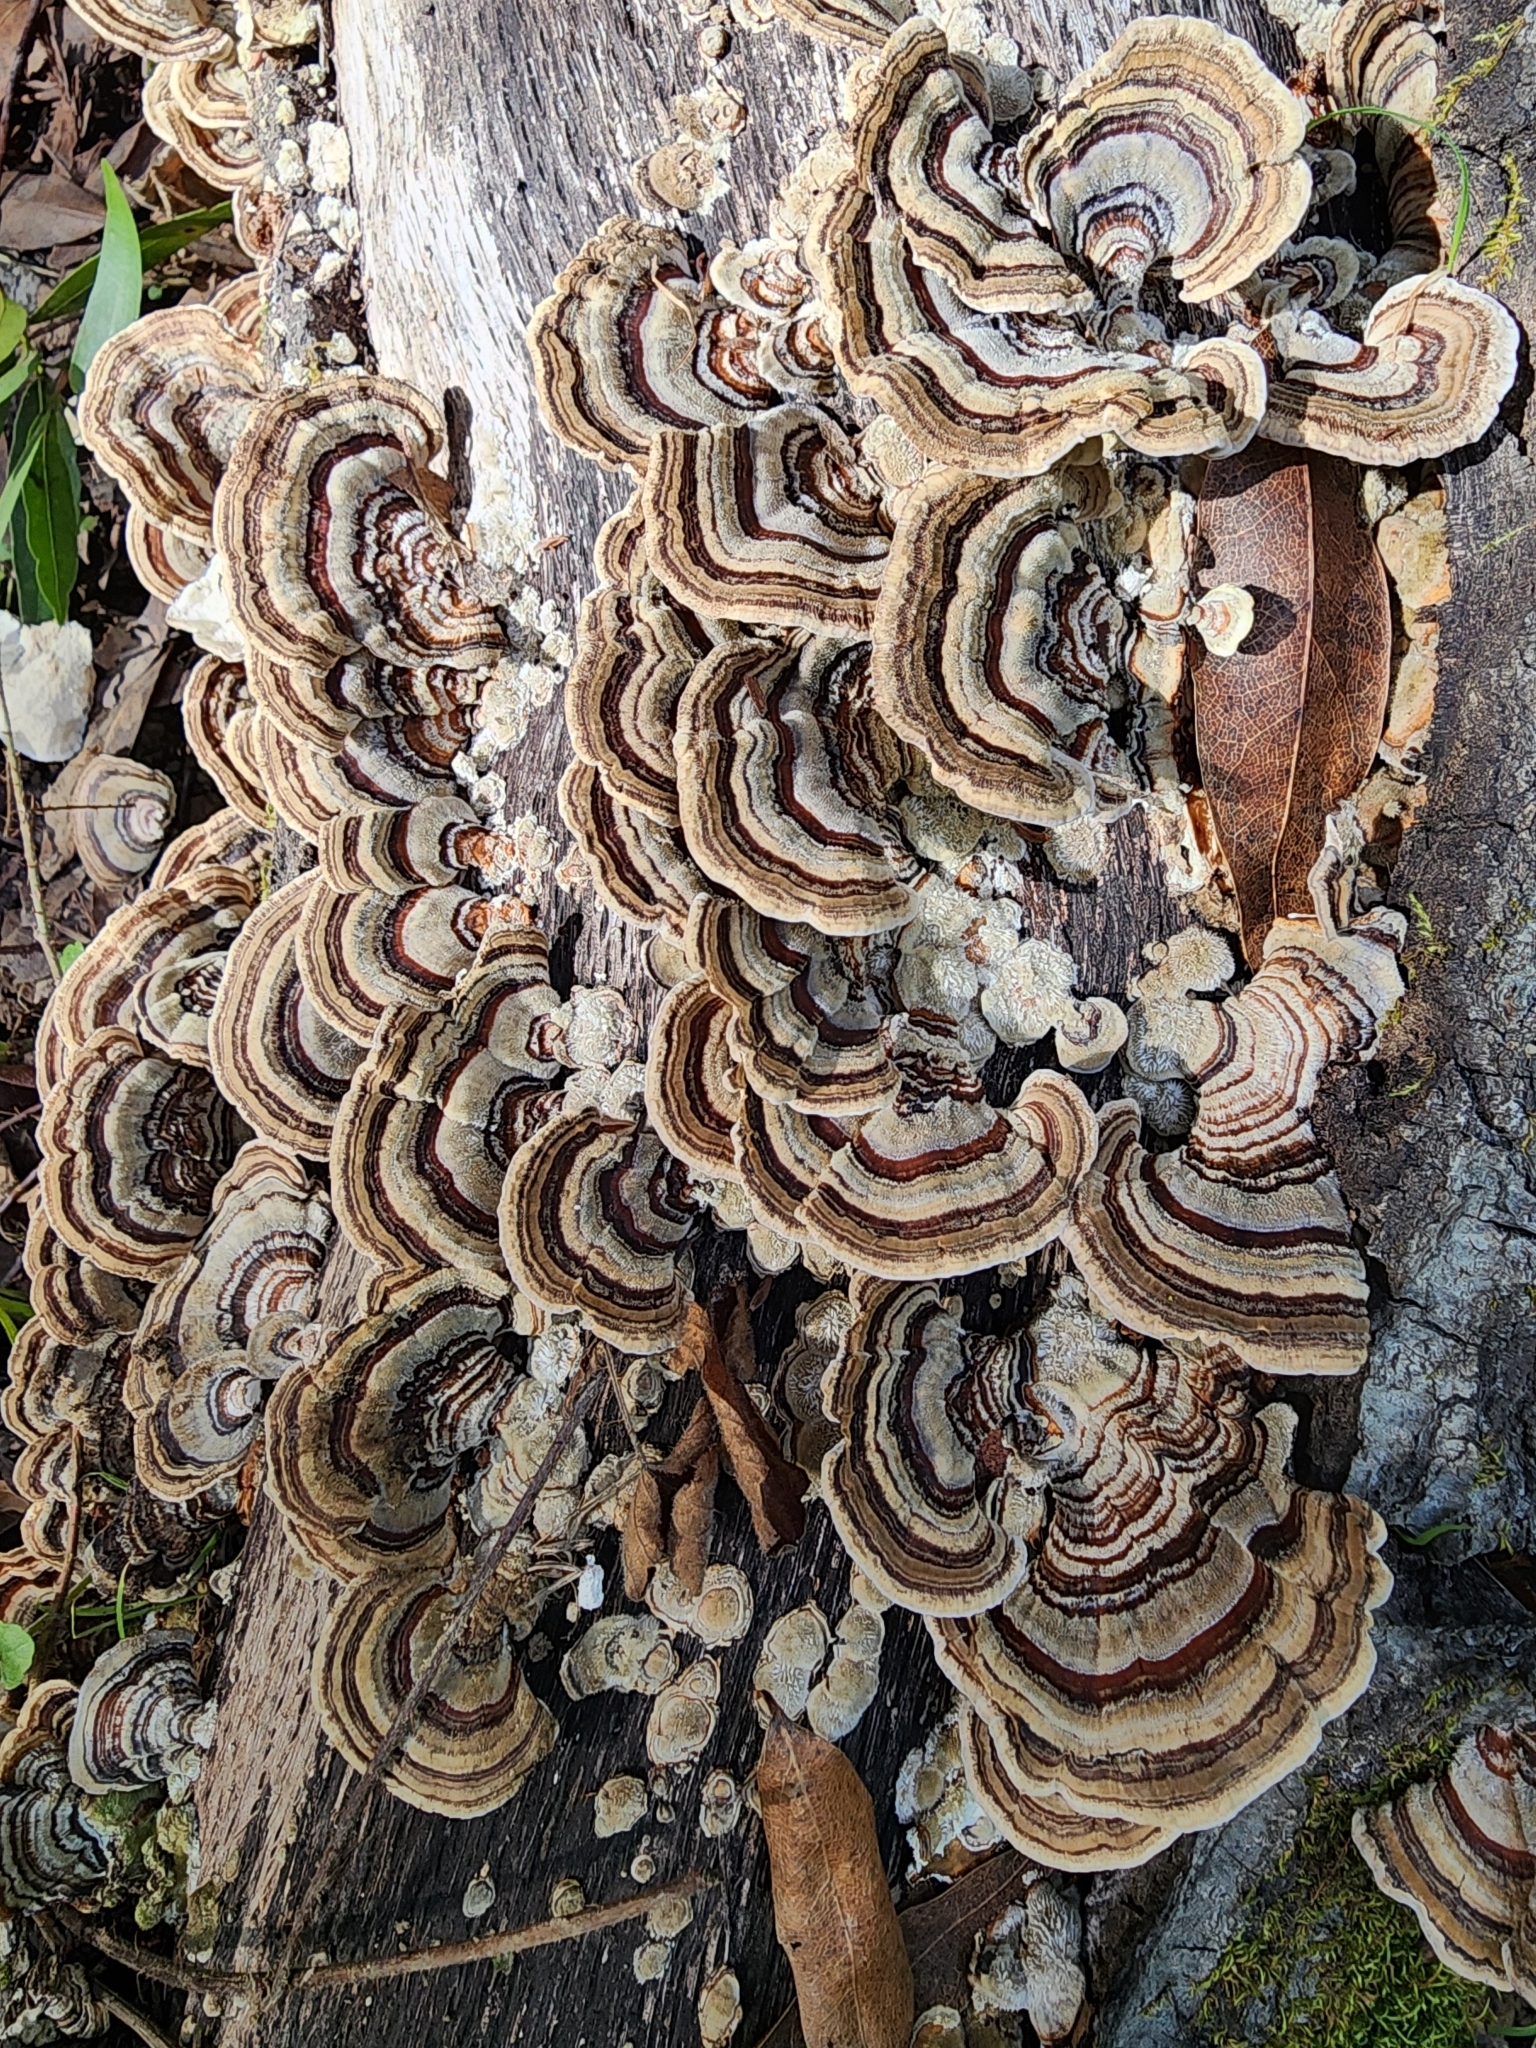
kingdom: Fungi
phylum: Basidiomycota
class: Agaricomycetes
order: Polyporales
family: Polyporaceae
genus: Trametes
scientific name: Trametes versicolor
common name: Turkeytail
